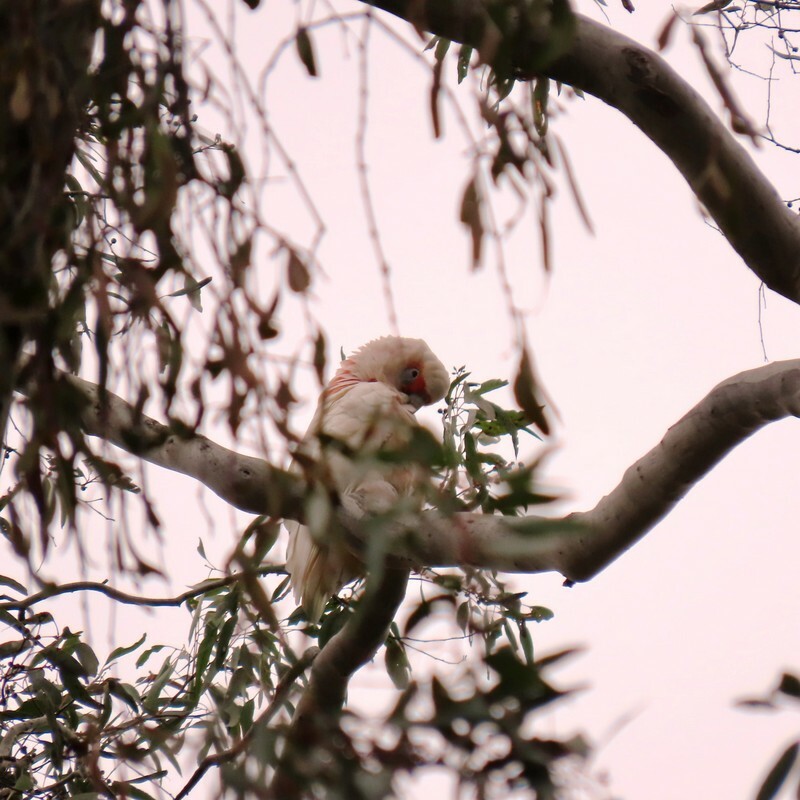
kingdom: Animalia
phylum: Chordata
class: Aves
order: Psittaciformes
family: Psittacidae
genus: Cacatua
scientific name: Cacatua tenuirostris
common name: Long-billed corella
